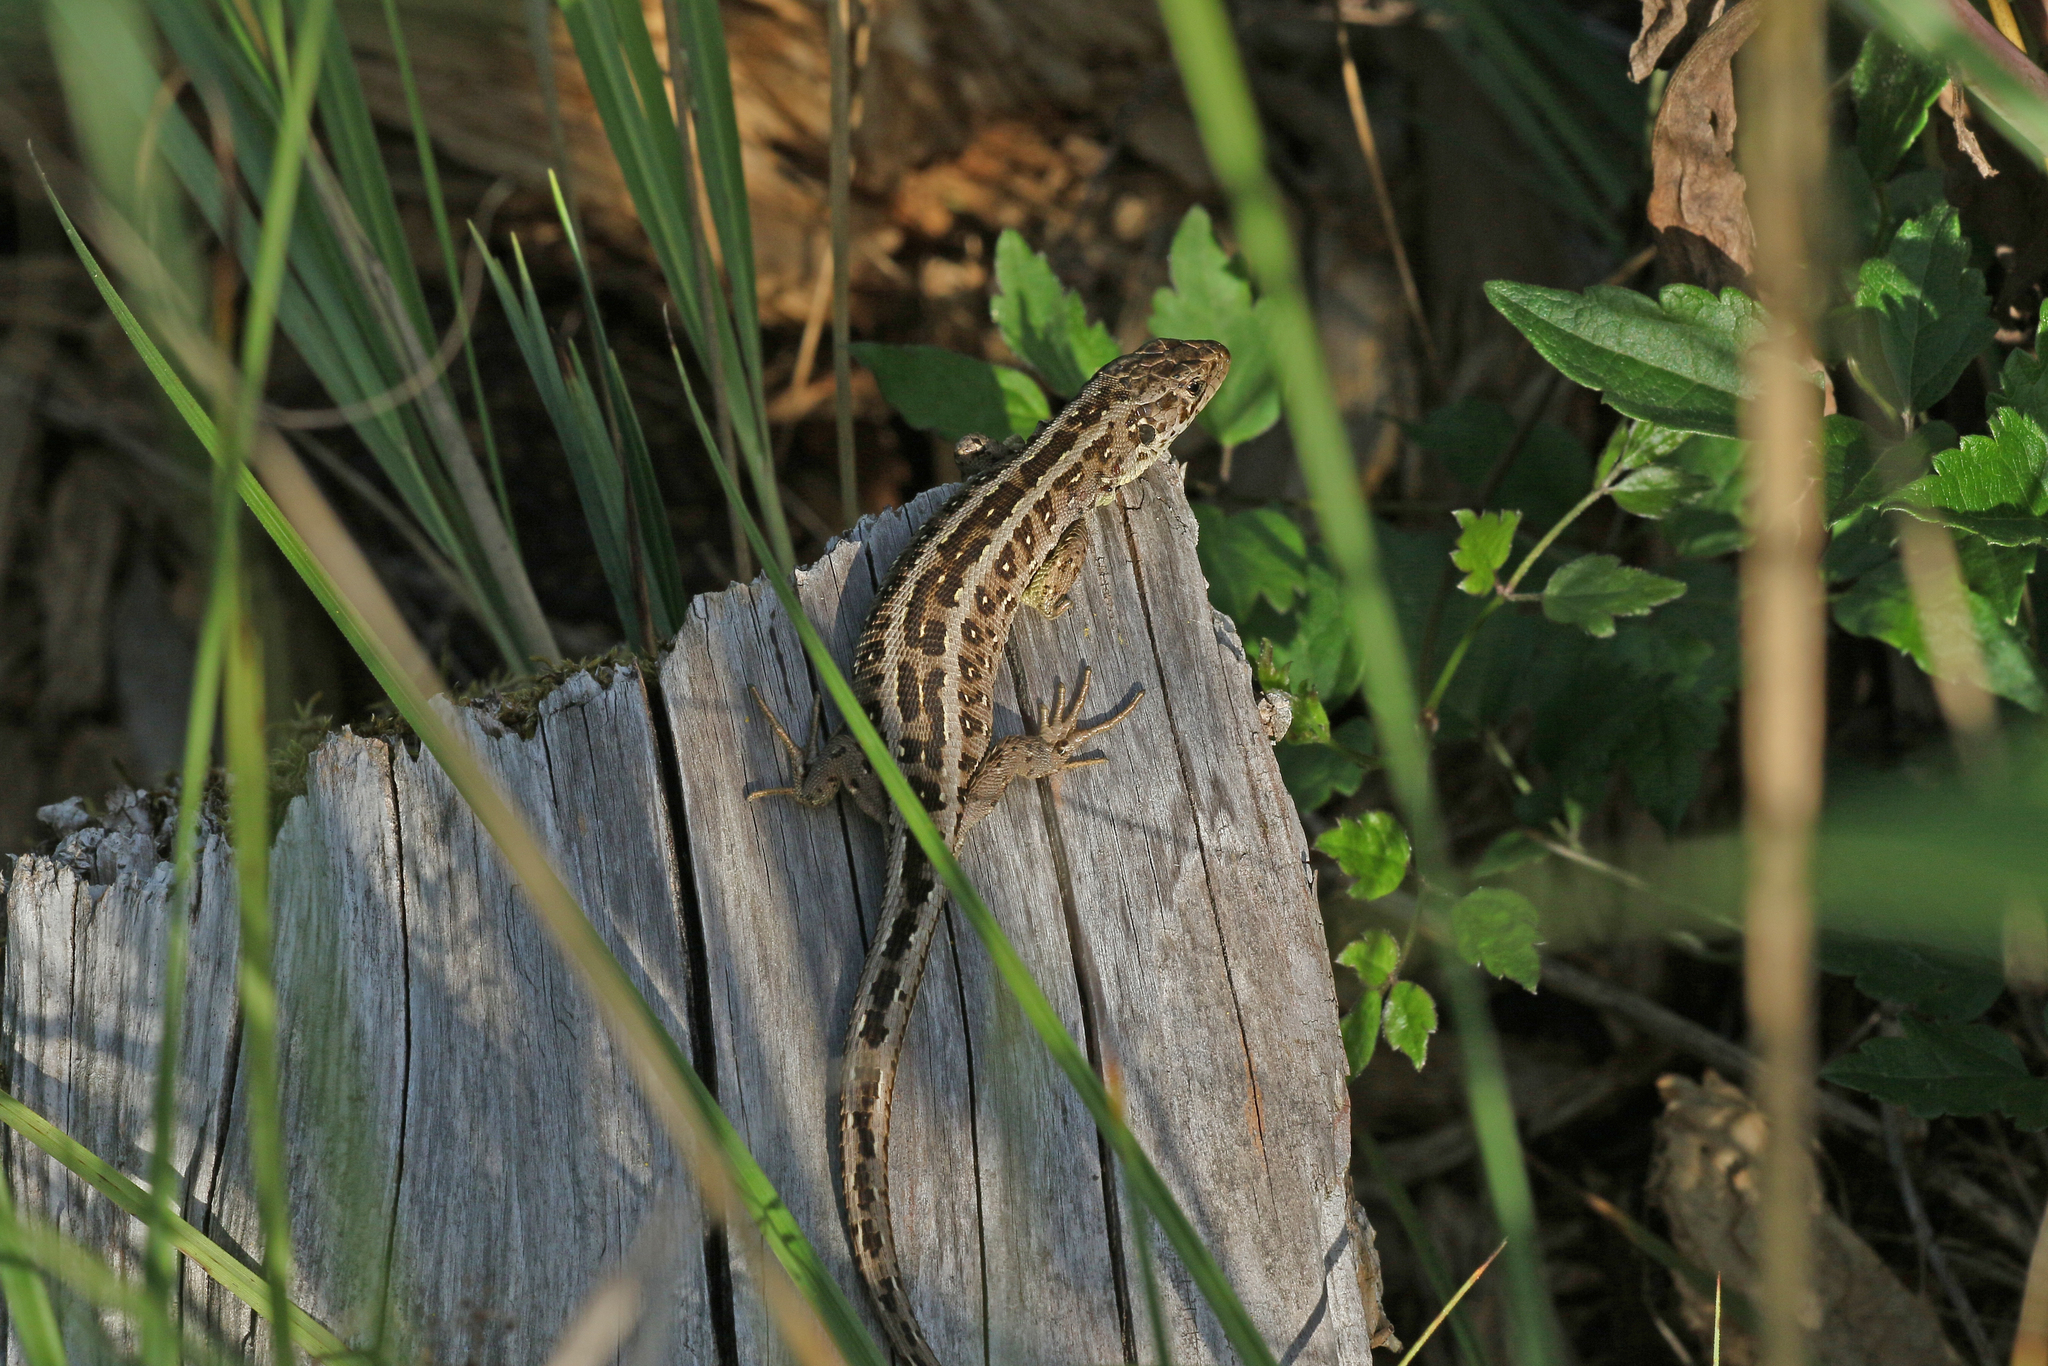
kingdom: Animalia
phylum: Chordata
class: Squamata
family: Lacertidae
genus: Lacerta
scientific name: Lacerta agilis
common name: Sand lizard
